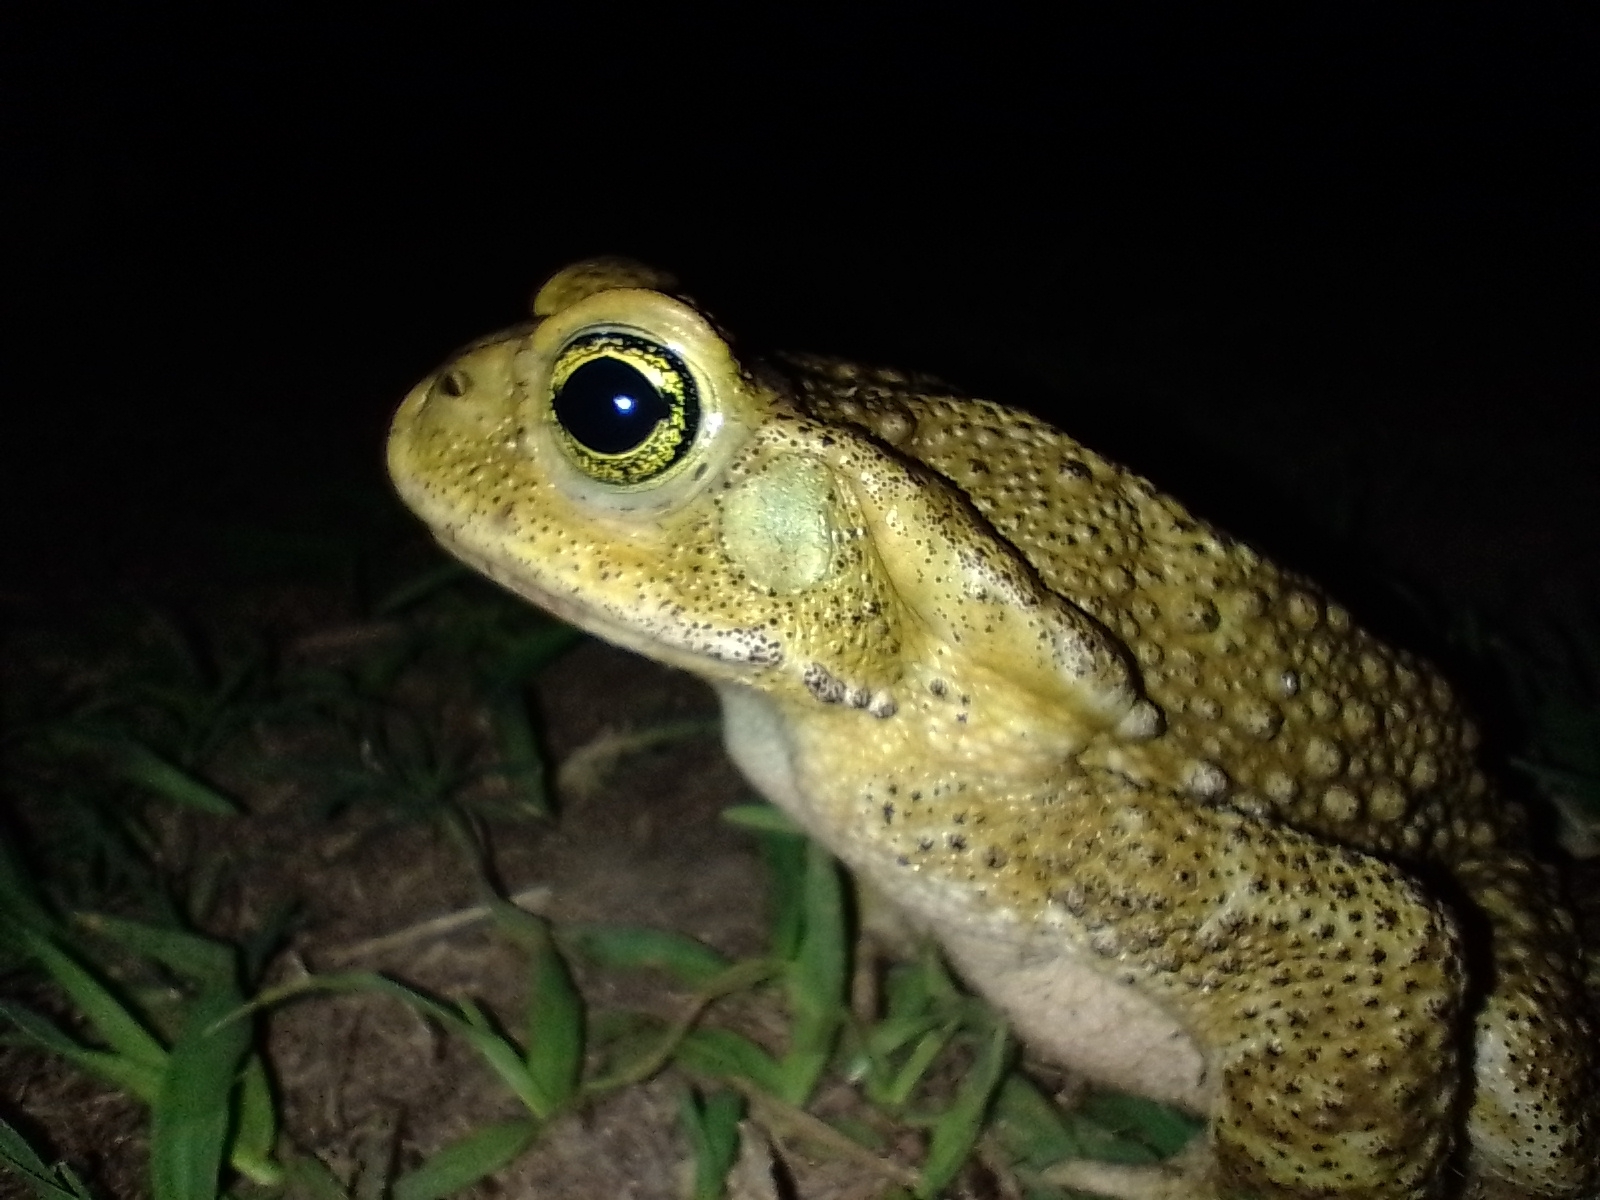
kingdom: Animalia
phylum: Chordata
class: Amphibia
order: Anura
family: Bufonidae
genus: Rhinella
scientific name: Rhinella arenarum
